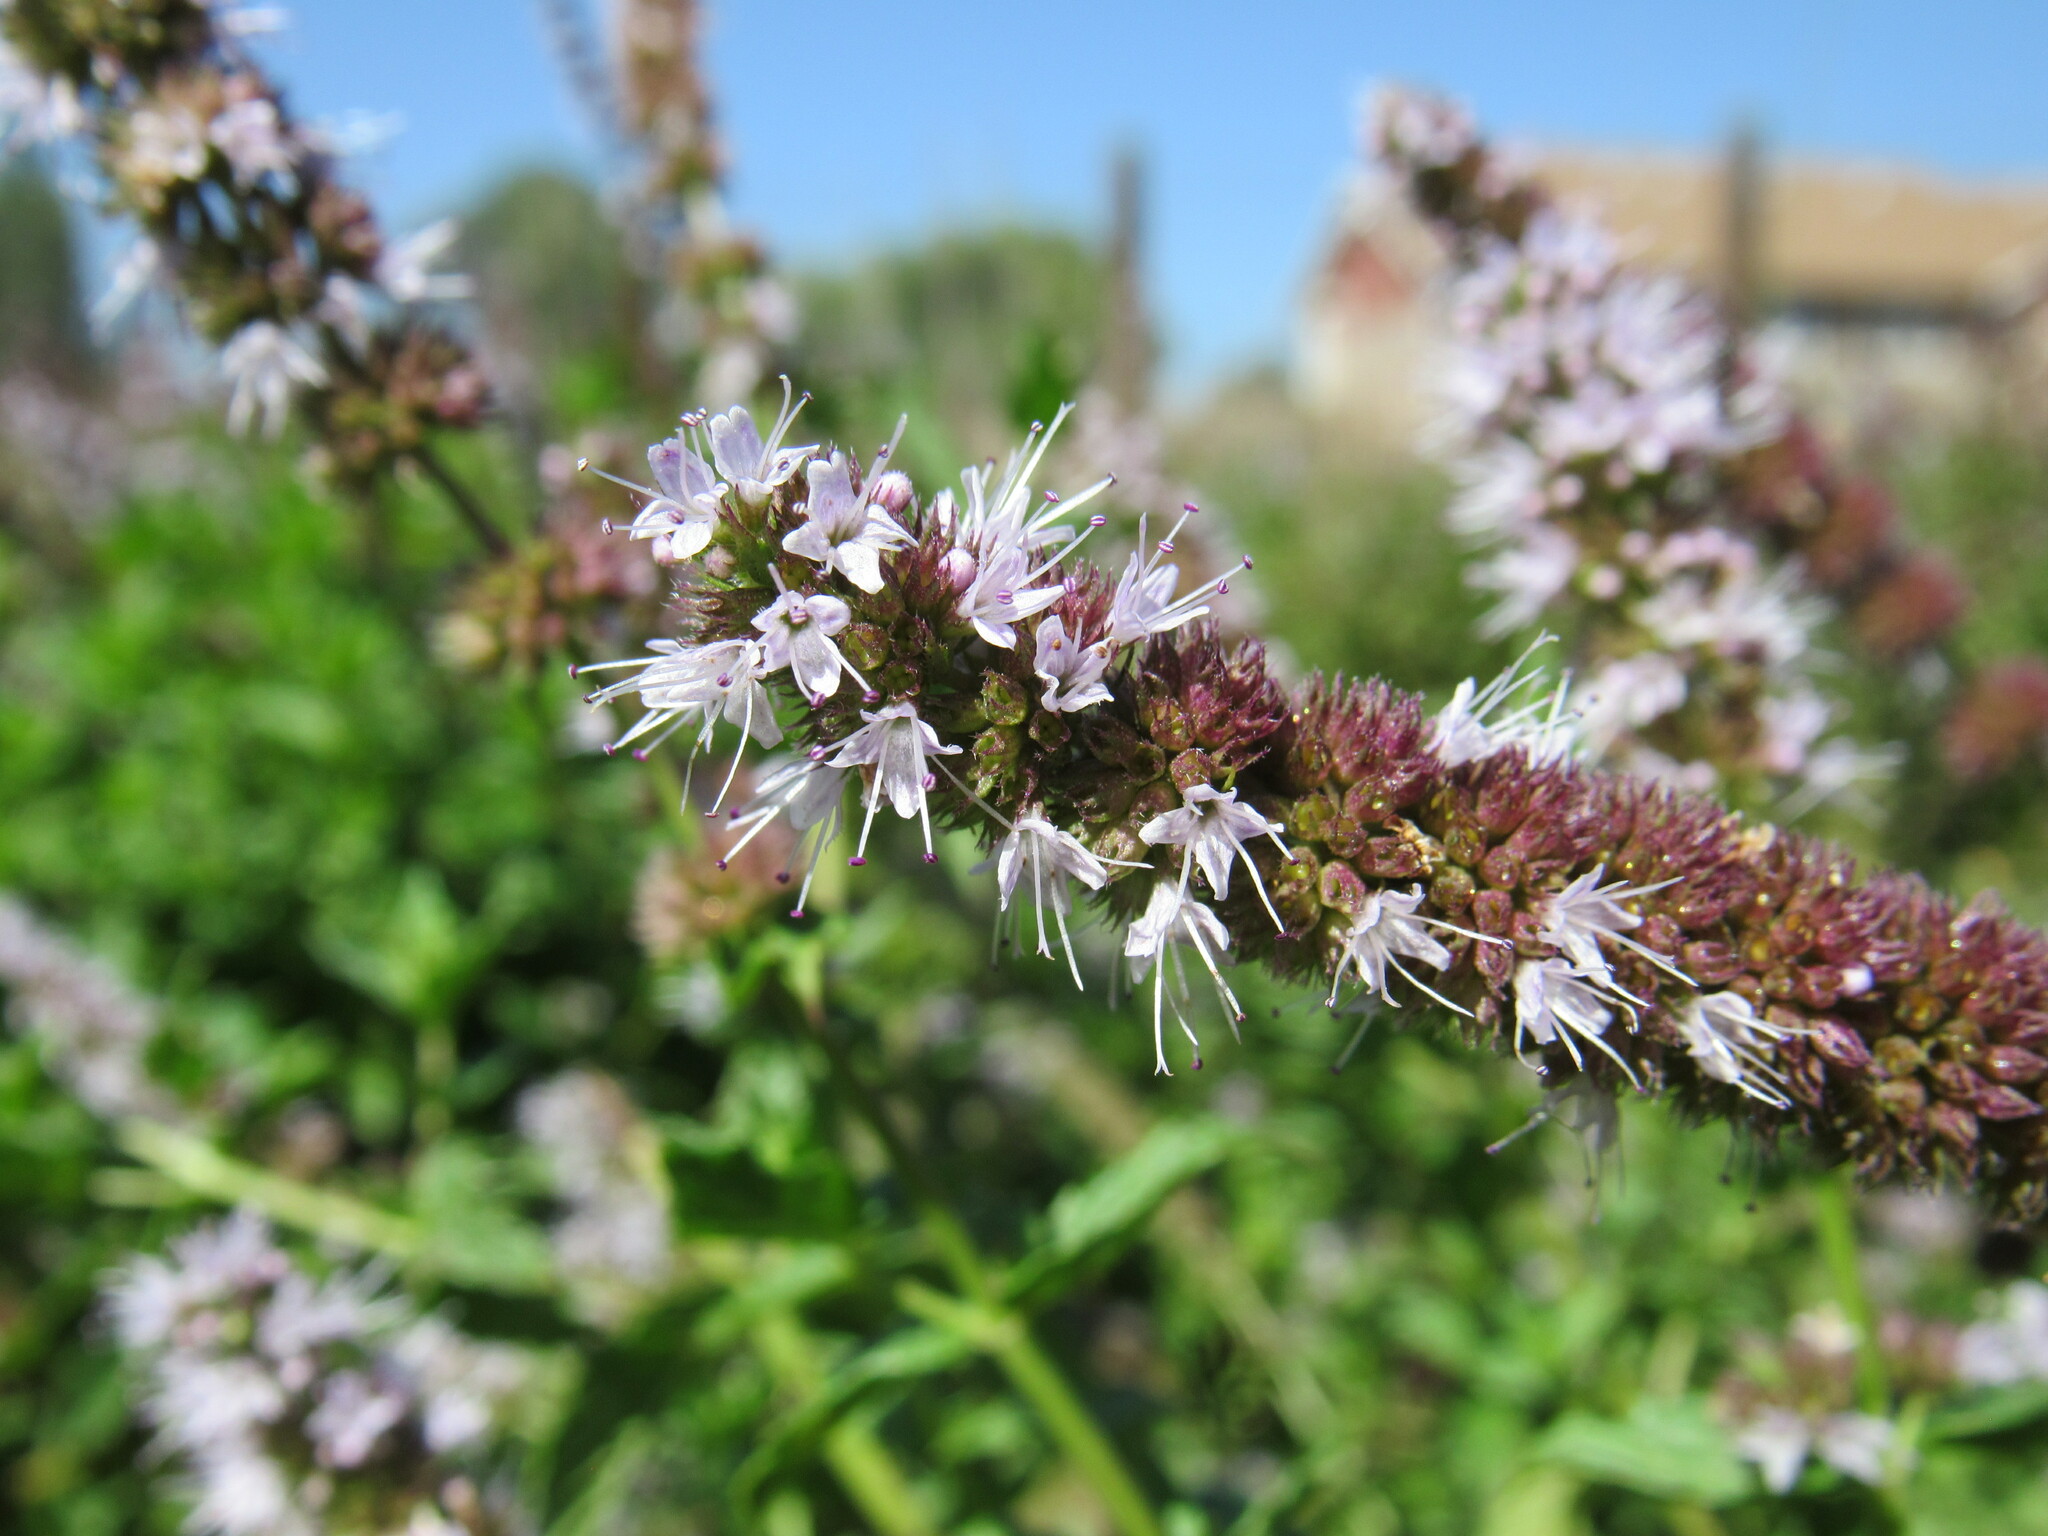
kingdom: Plantae
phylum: Tracheophyta
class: Magnoliopsida
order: Lamiales
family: Lamiaceae
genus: Mentha
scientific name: Mentha spicata
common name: Spearmint
